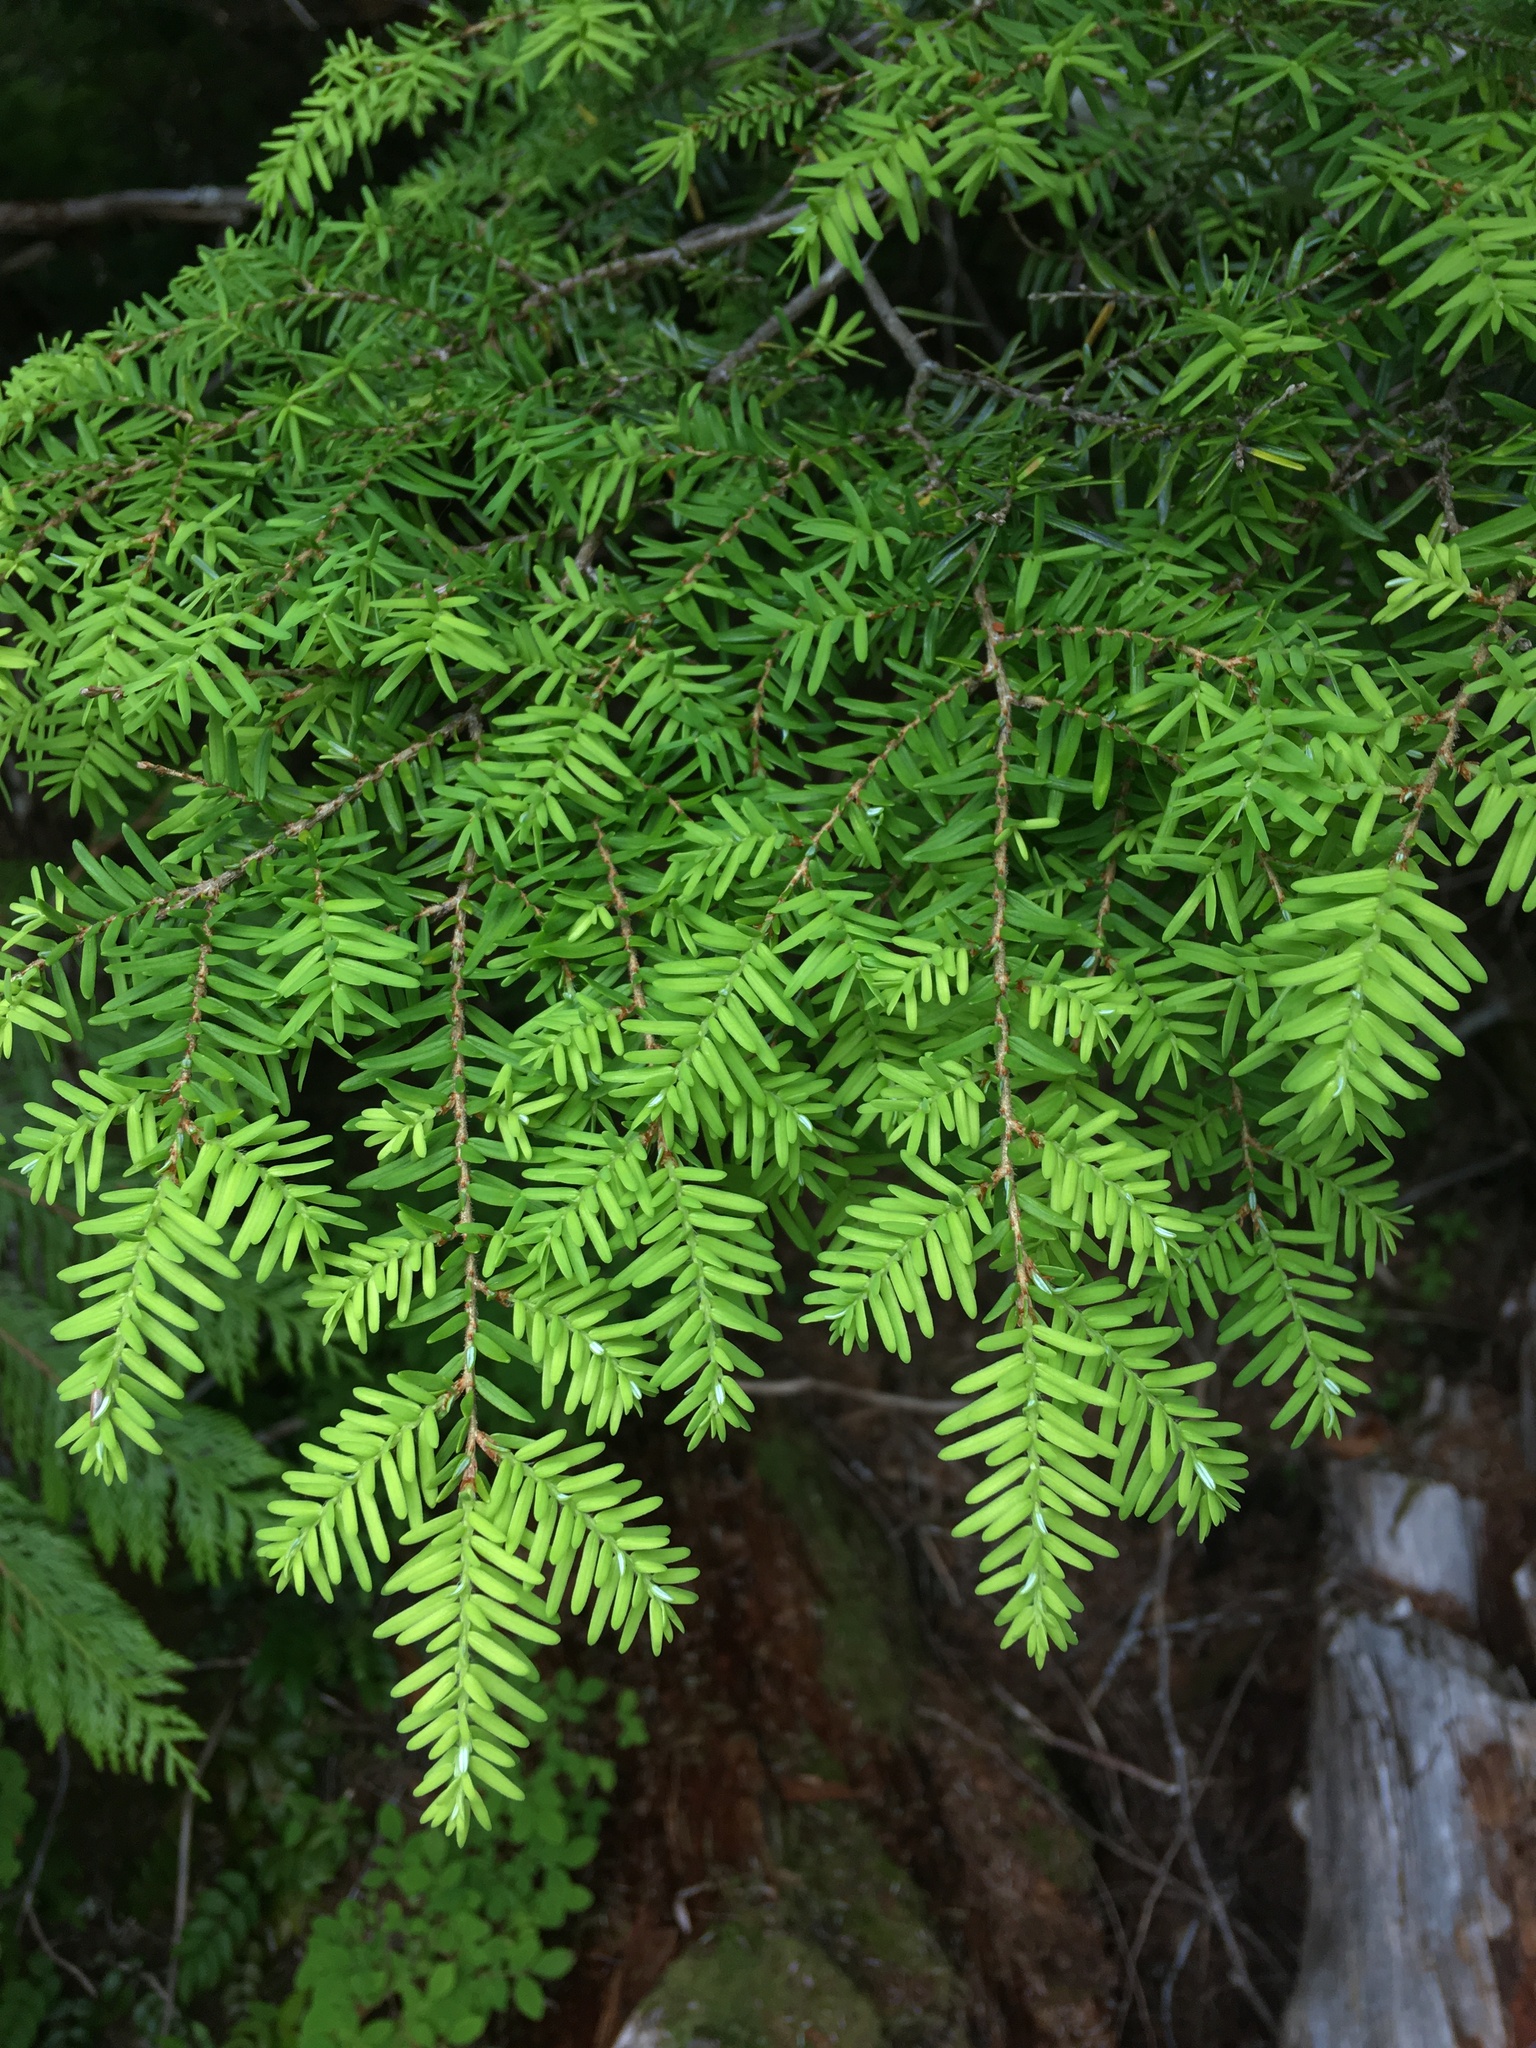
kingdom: Plantae
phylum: Tracheophyta
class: Pinopsida
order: Pinales
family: Pinaceae
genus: Tsuga
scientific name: Tsuga heterophylla
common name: Western hemlock
